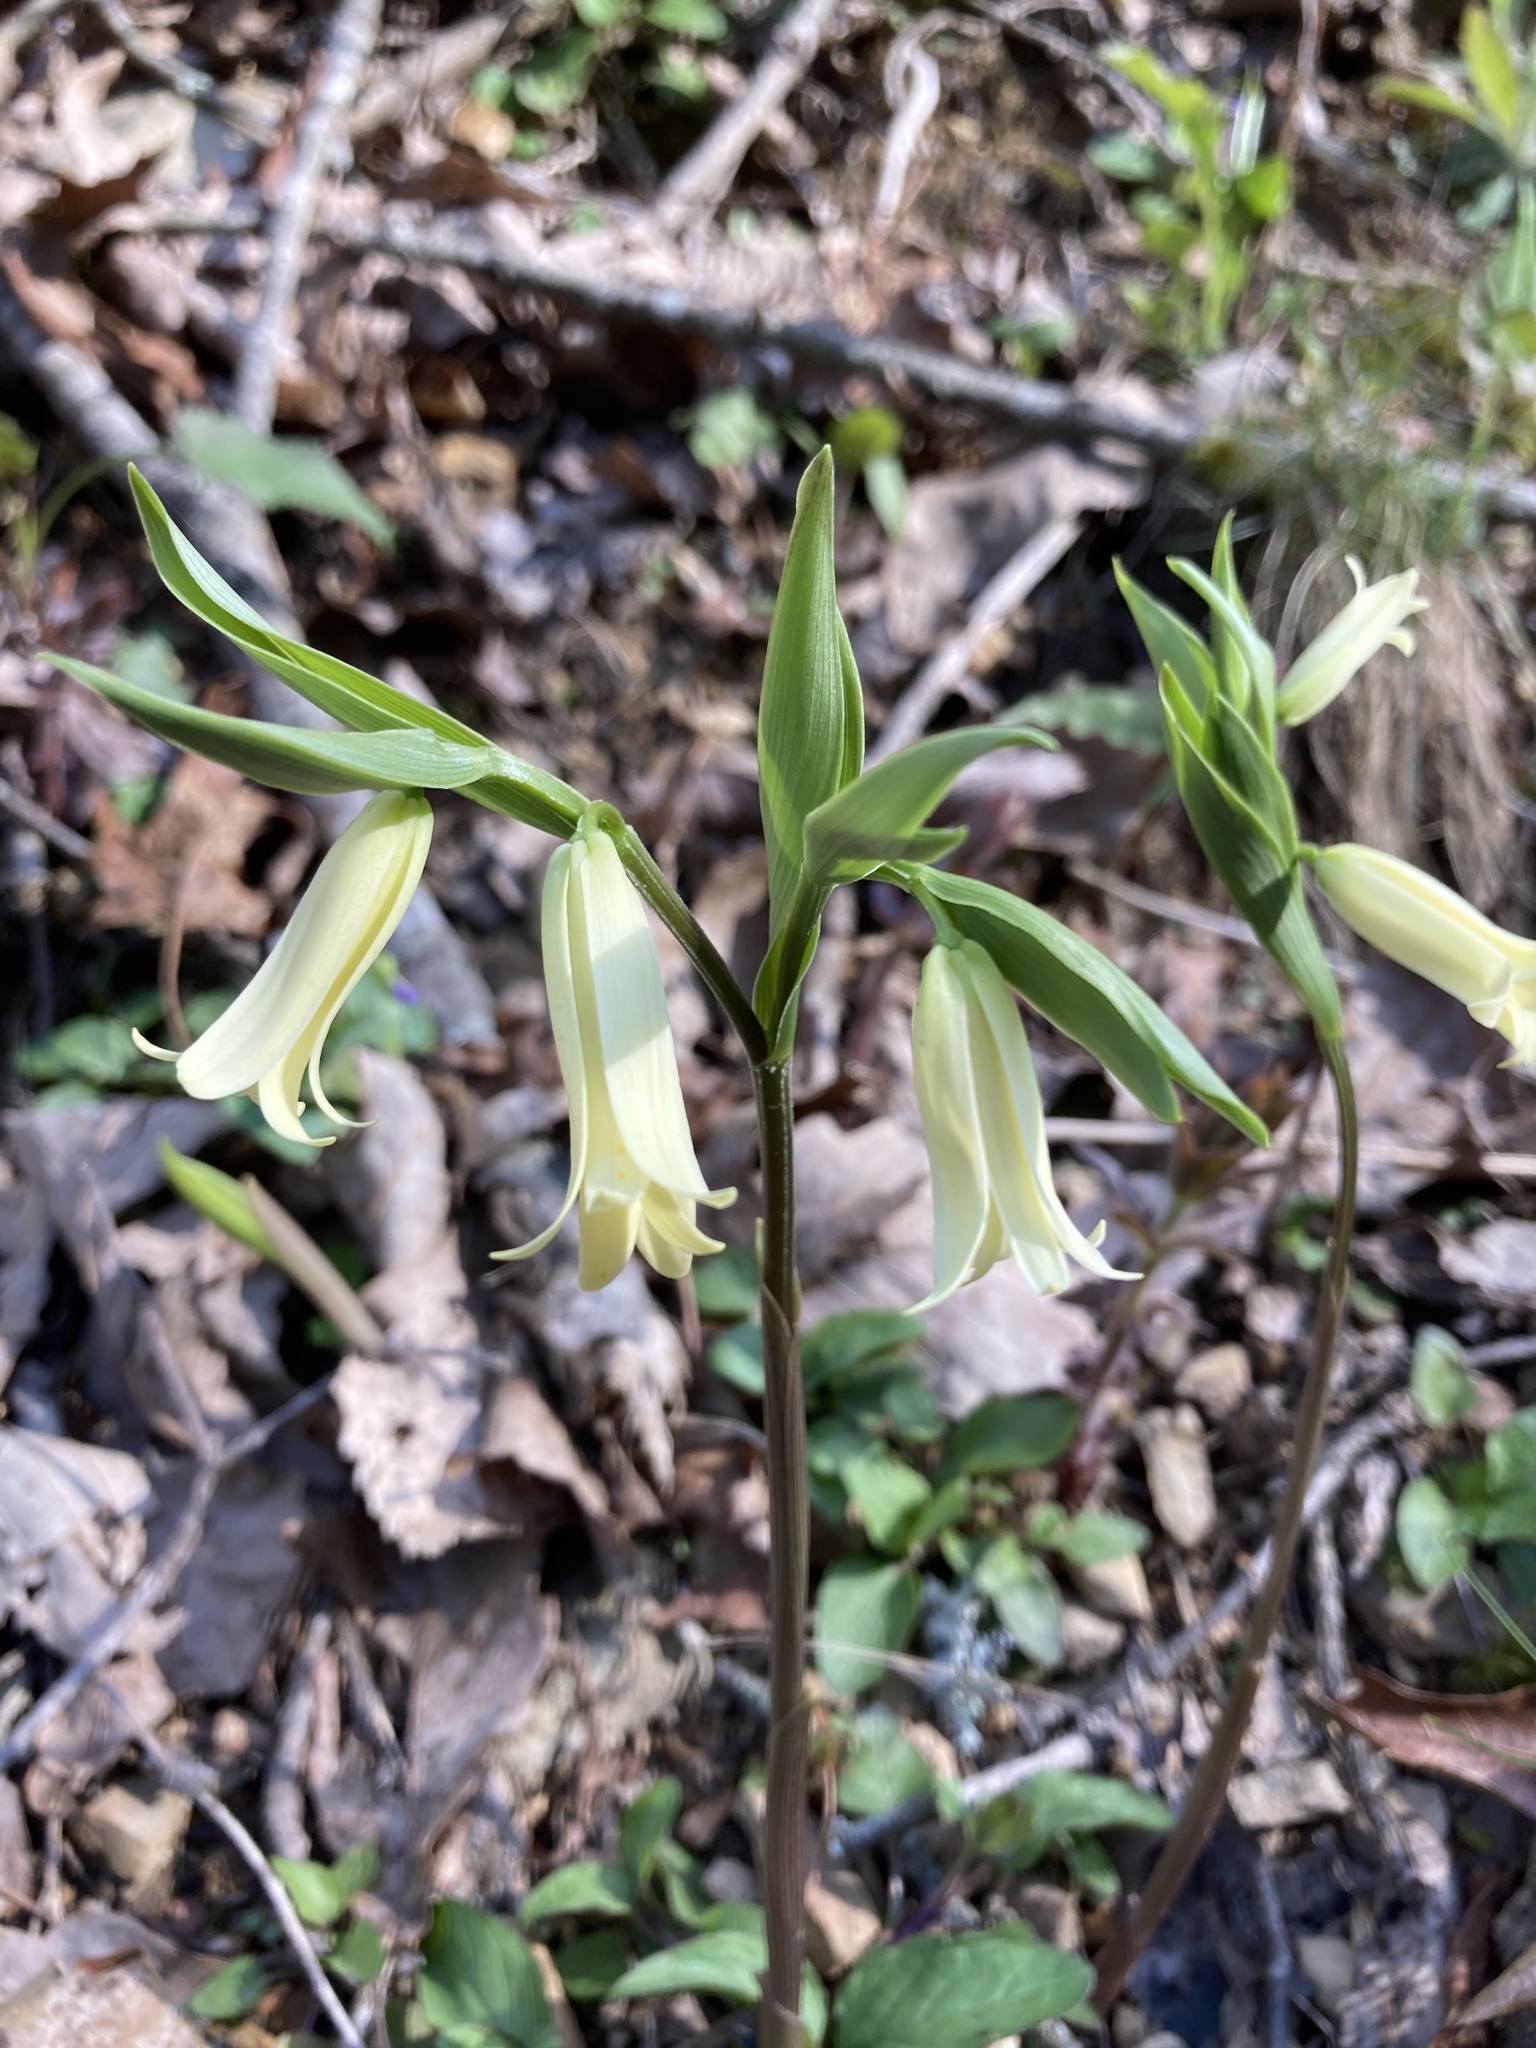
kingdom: Plantae
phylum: Tracheophyta
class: Liliopsida
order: Liliales
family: Colchicaceae
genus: Uvularia
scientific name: Uvularia puberula
